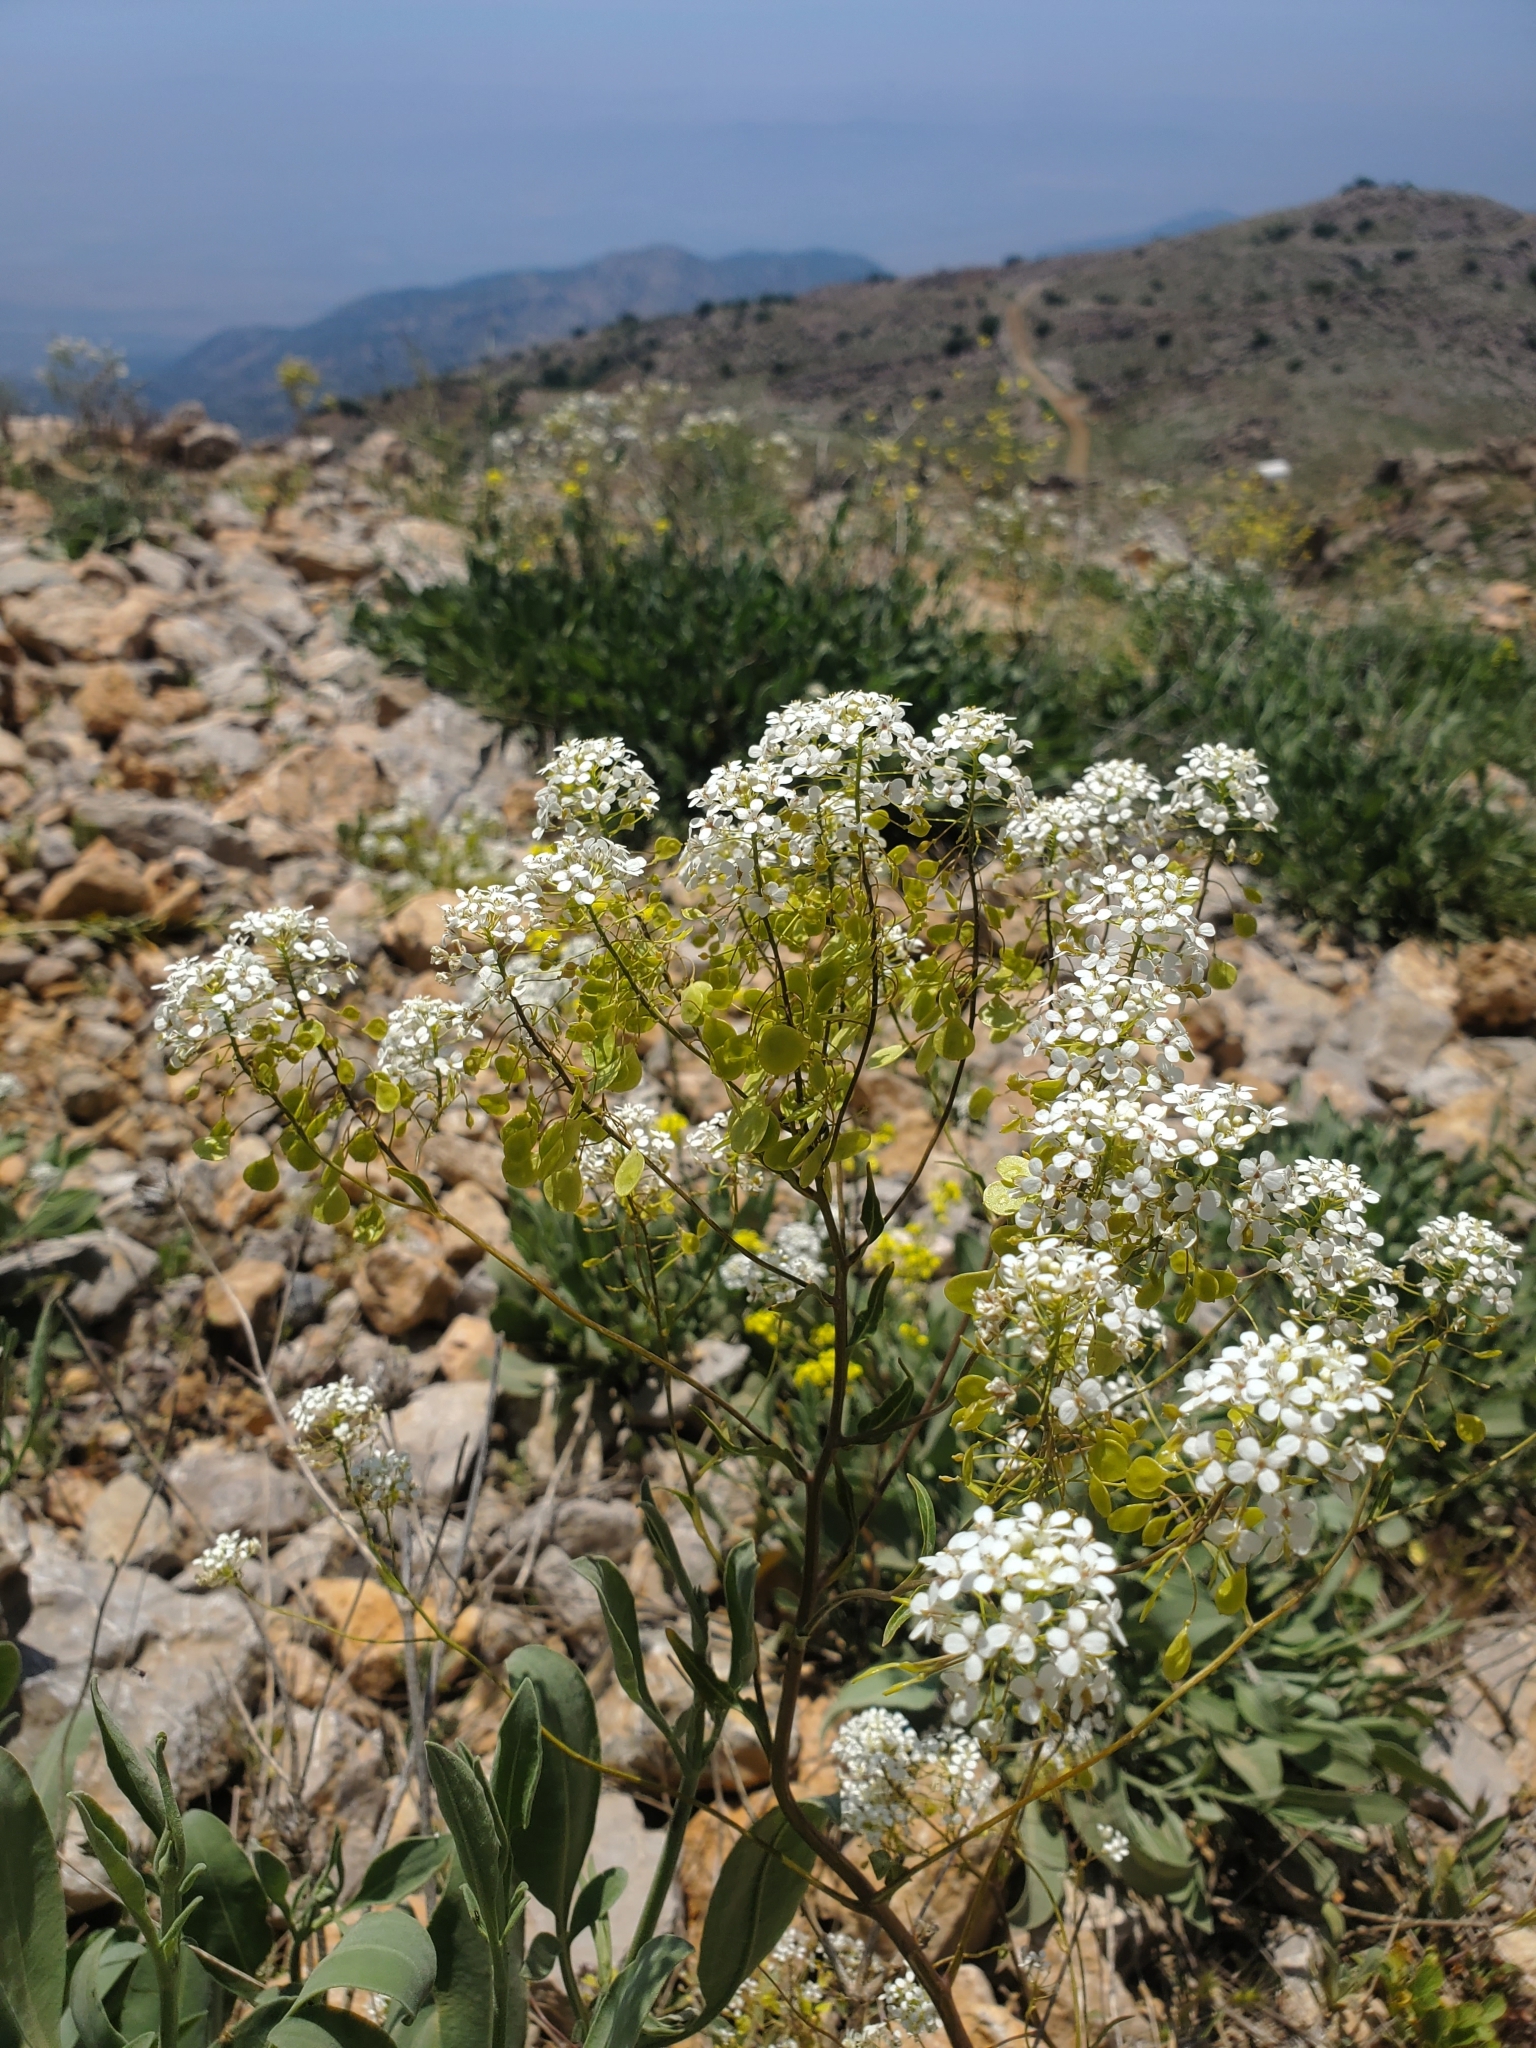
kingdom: Plantae
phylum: Tracheophyta
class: Magnoliopsida
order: Brassicales
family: Brassicaceae
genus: Peltaria
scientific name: Peltaria angustifolia
